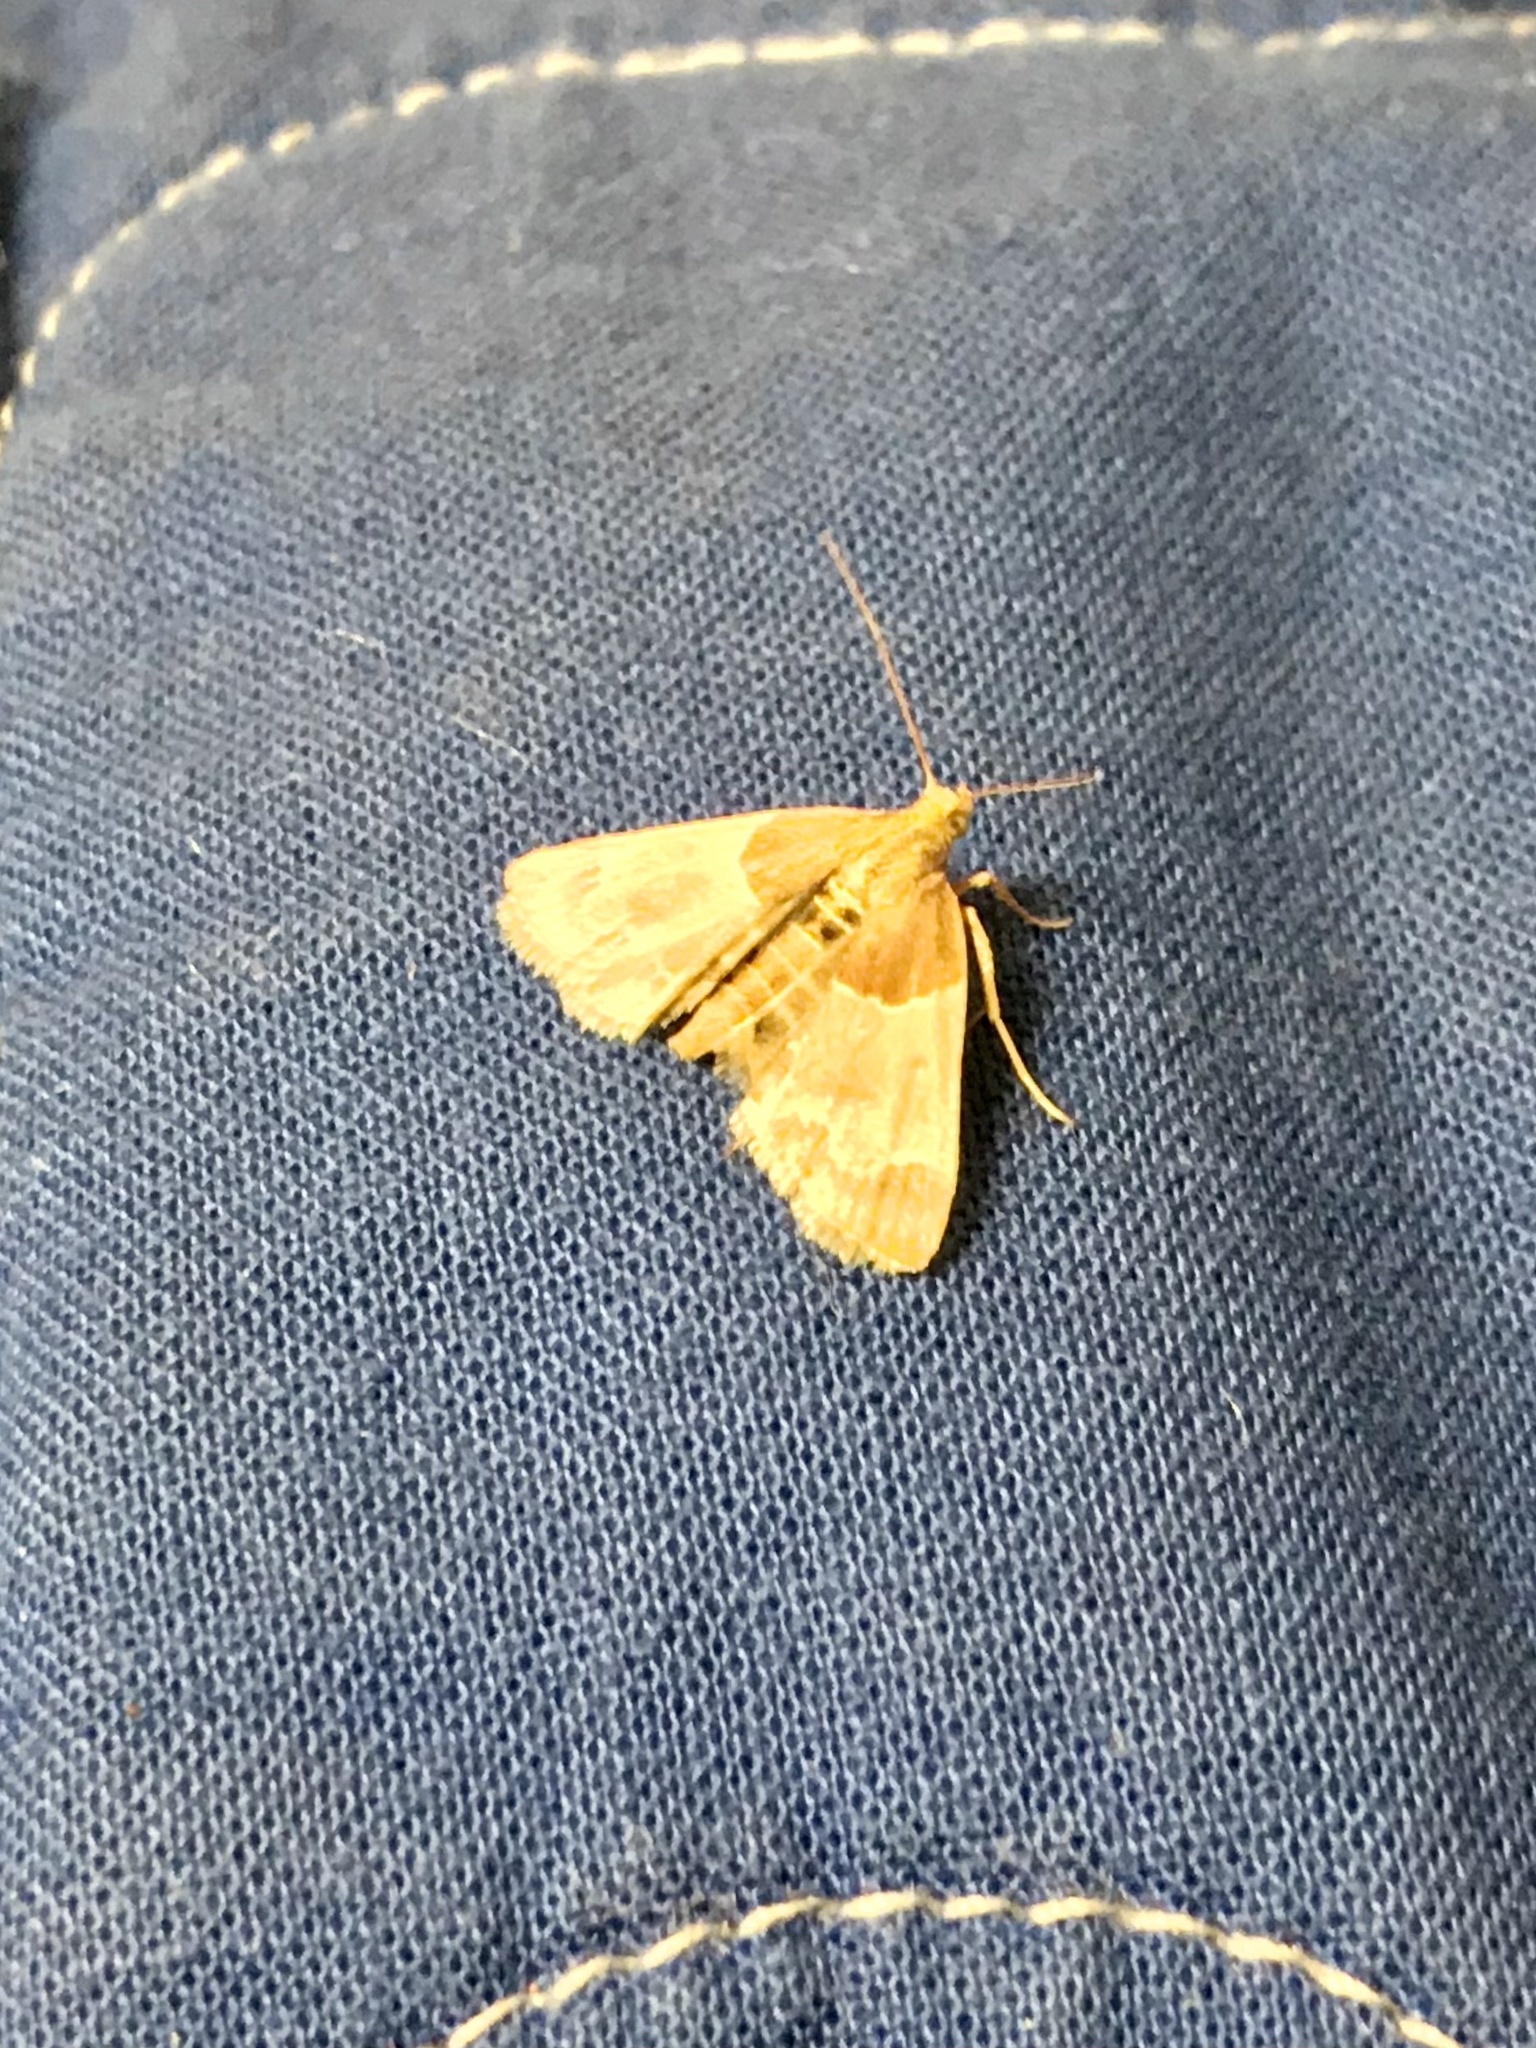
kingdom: Animalia
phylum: Arthropoda
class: Insecta
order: Lepidoptera
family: Pyralidae
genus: Pyralis
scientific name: Pyralis farinalis
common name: Meal moth
